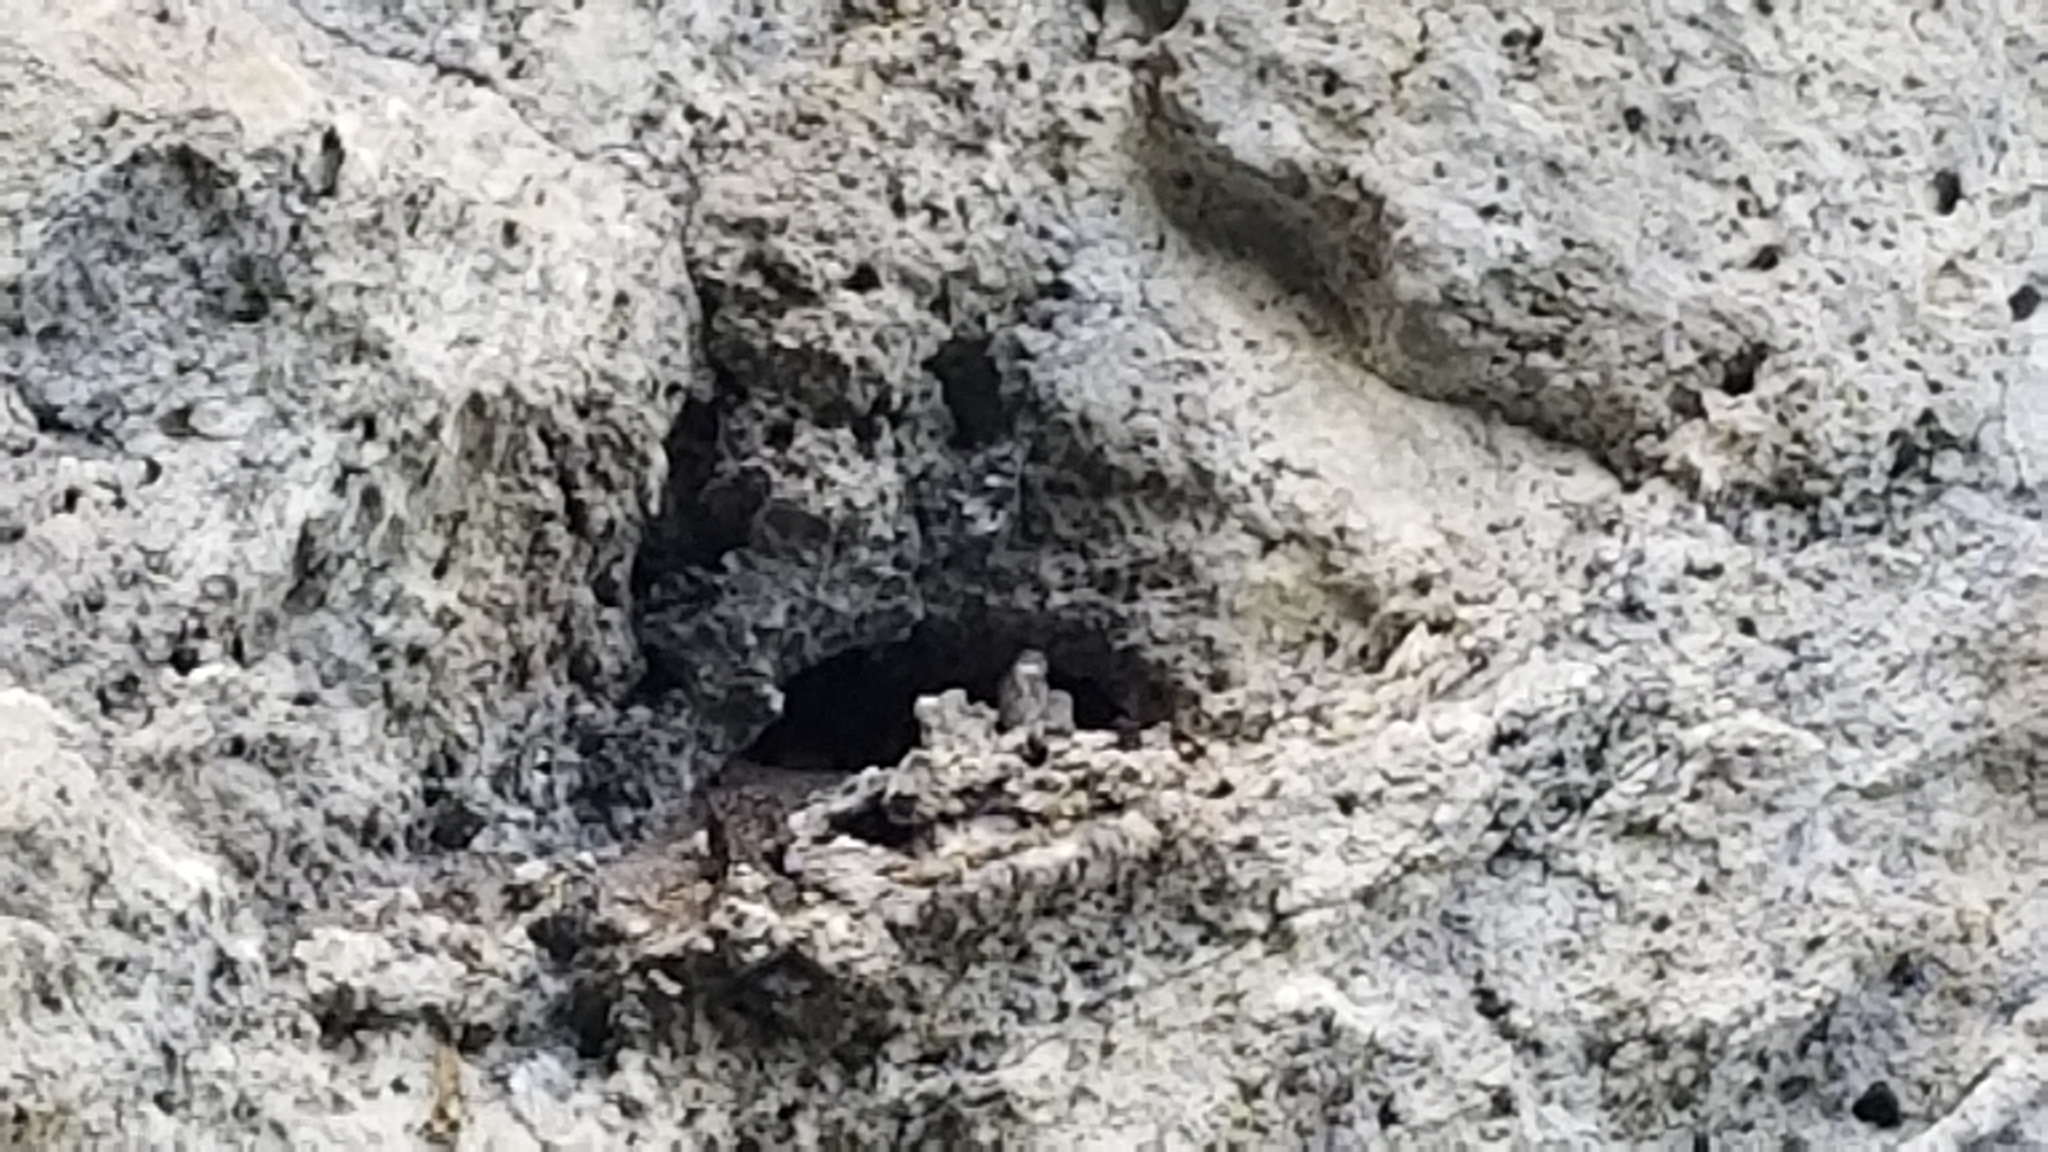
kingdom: Animalia
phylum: Chordata
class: Aves
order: Strigiformes
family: Strigidae
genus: Bubo
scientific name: Bubo virginianus
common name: Great horned owl
